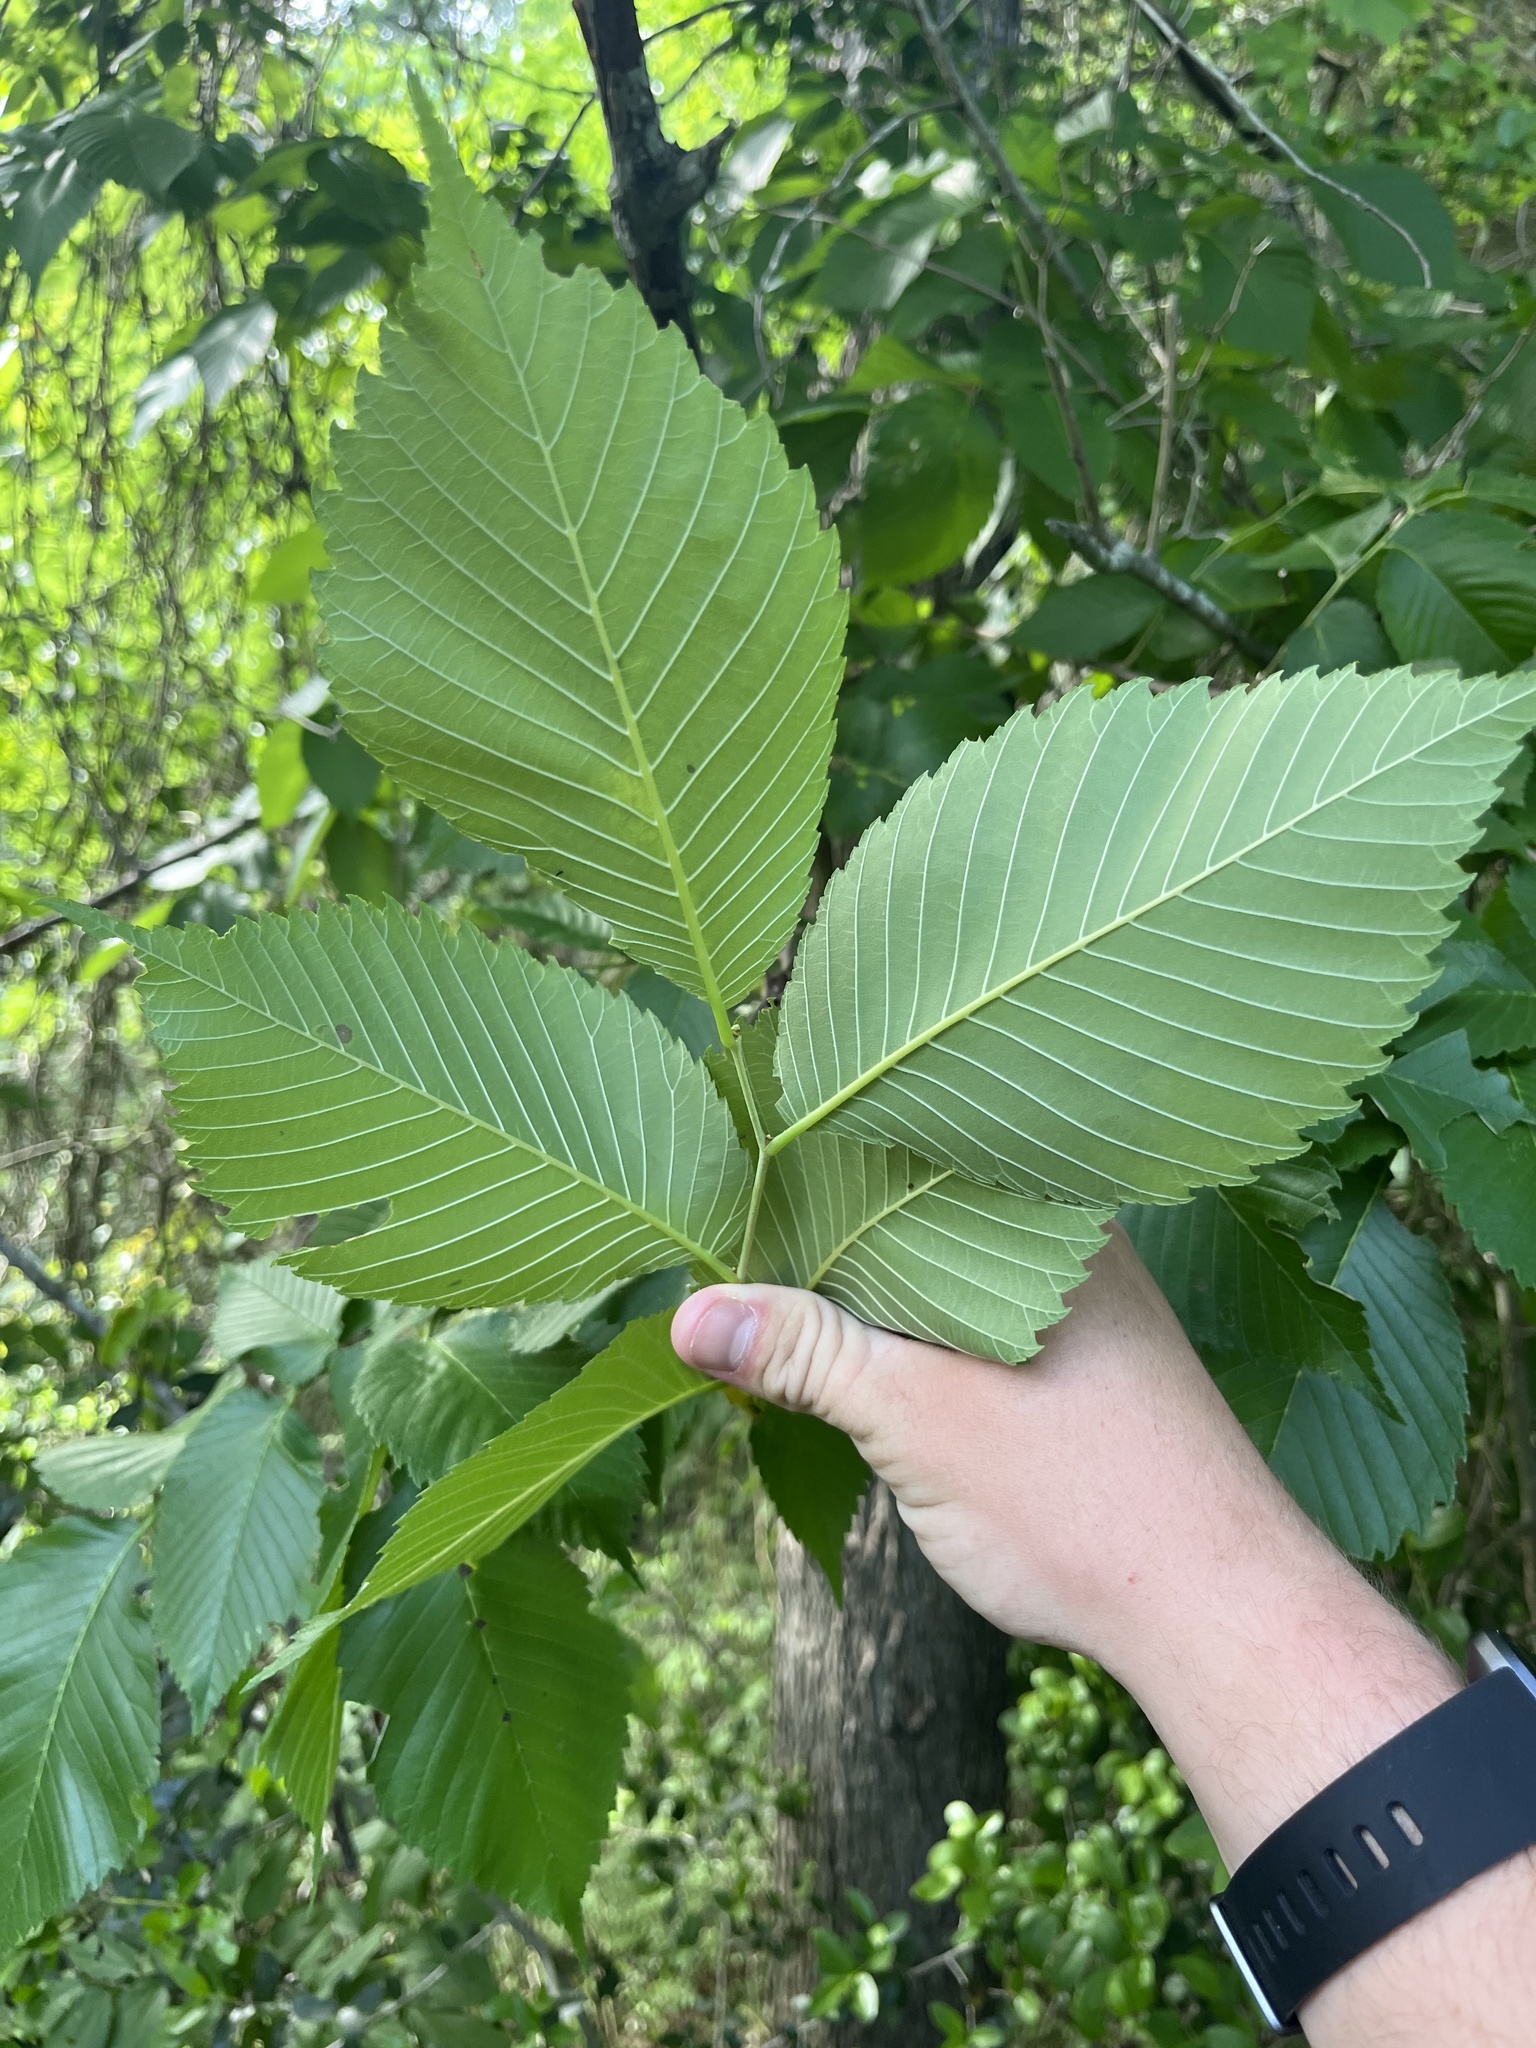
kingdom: Plantae
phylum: Tracheophyta
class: Magnoliopsida
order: Rosales
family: Ulmaceae
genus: Ulmus
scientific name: Ulmus americana
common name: American elm
